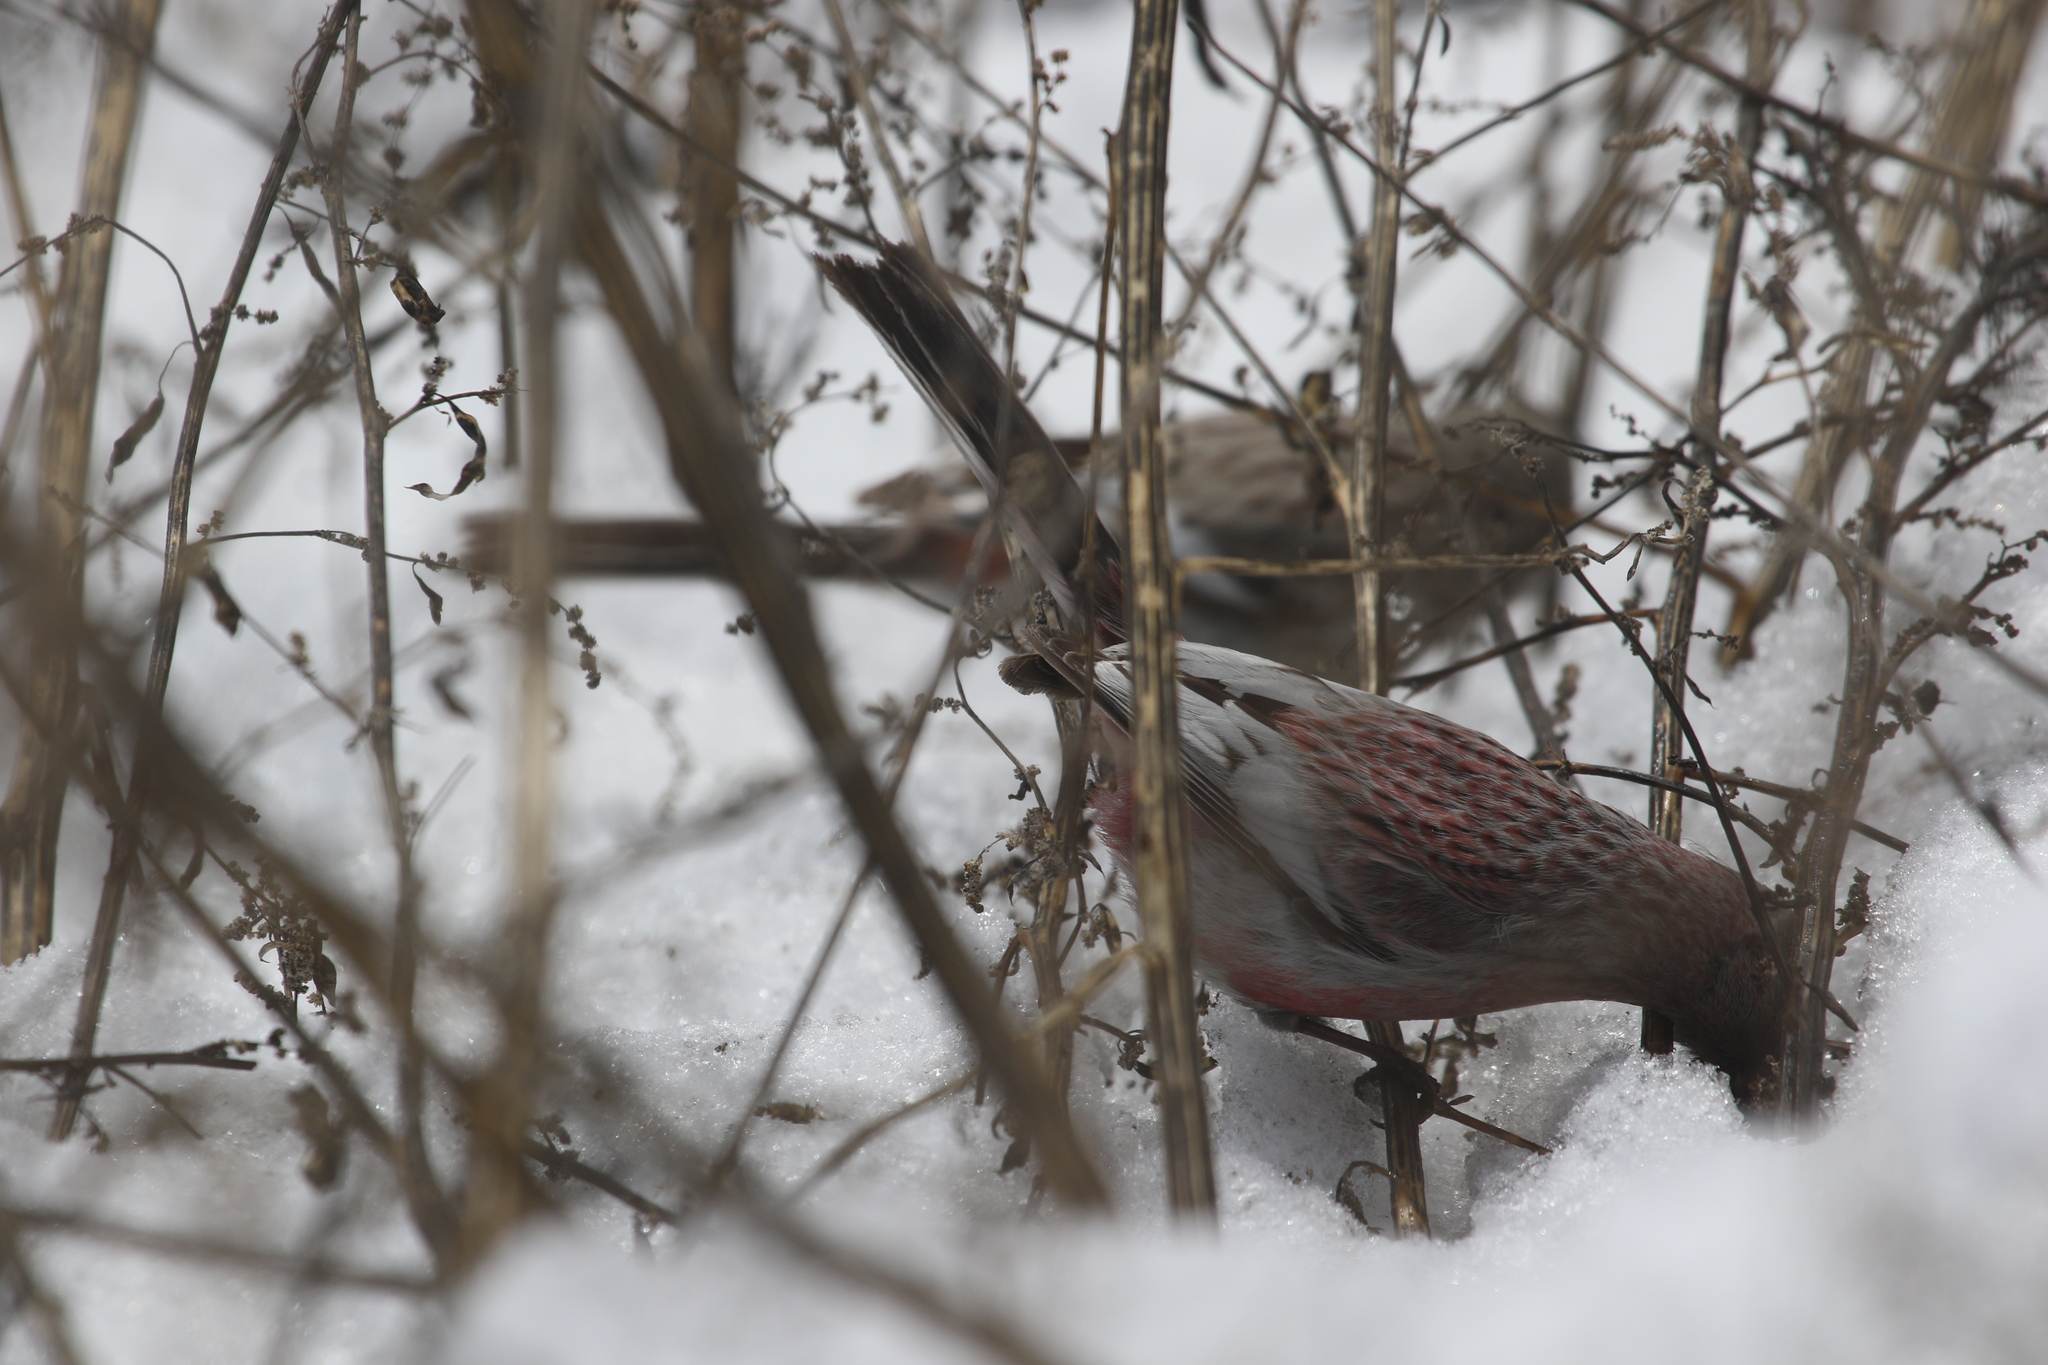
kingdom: Animalia
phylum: Chordata
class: Aves
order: Passeriformes
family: Fringillidae
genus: Carpodacus
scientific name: Carpodacus sibiricus
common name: Long-tailed rosefinch
